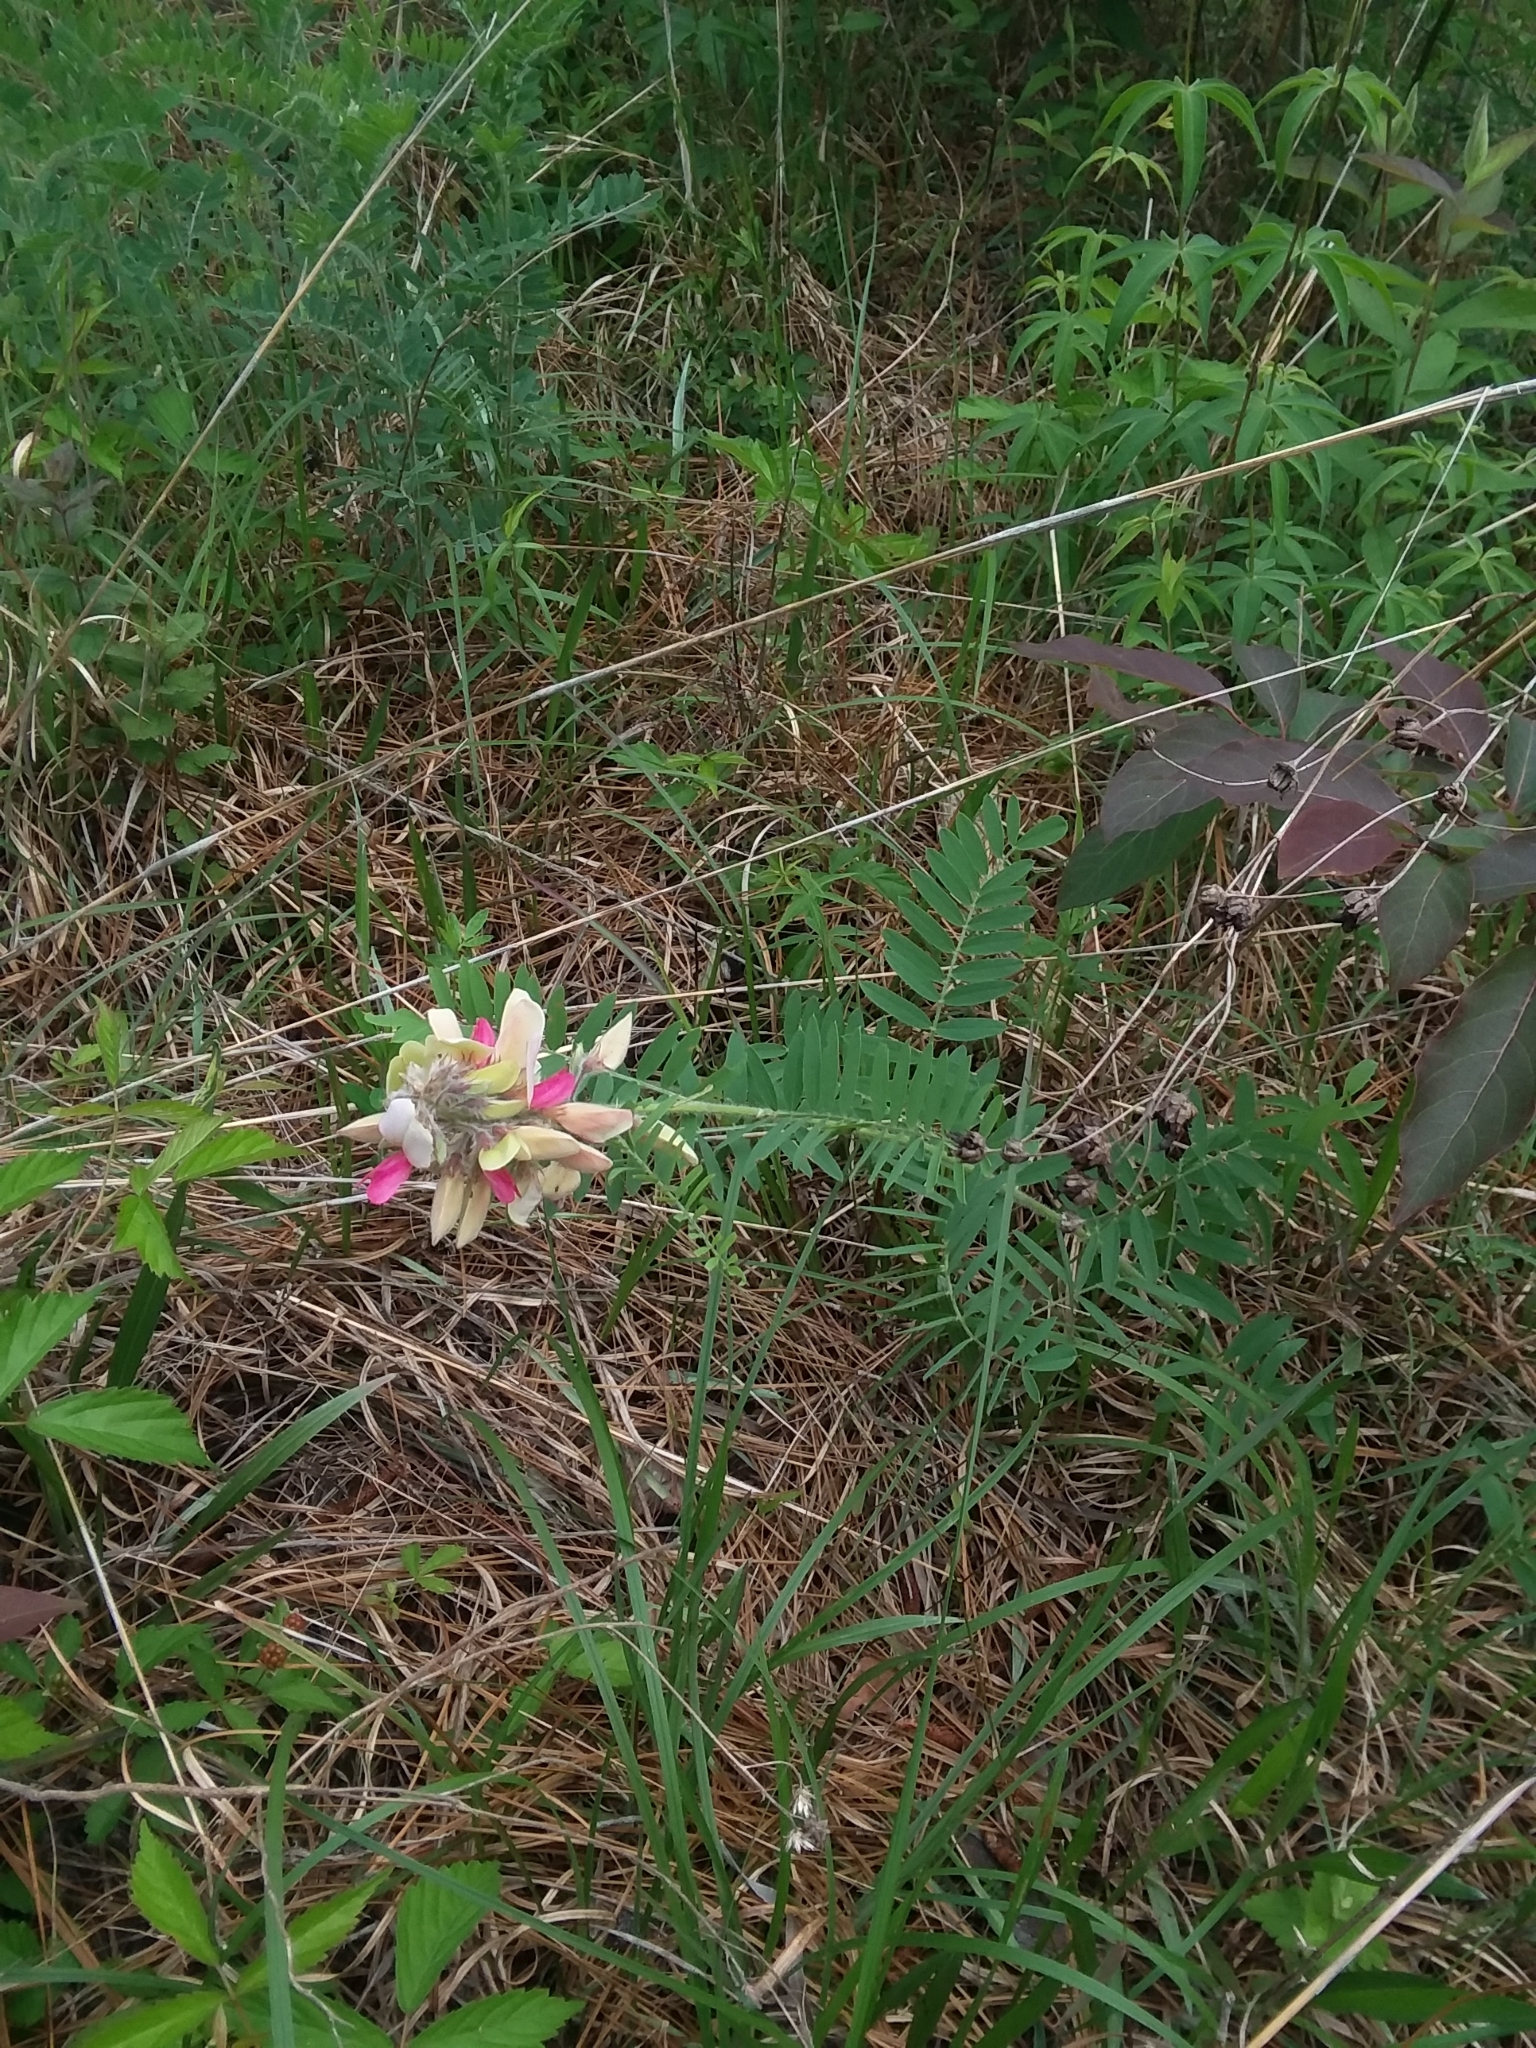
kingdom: Plantae
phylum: Tracheophyta
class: Magnoliopsida
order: Fabales
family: Fabaceae
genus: Tephrosia
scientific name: Tephrosia virginiana
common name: Rabbit-pea
